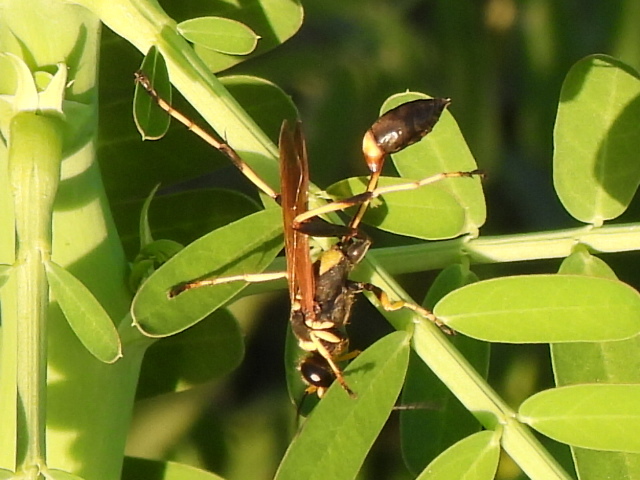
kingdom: Animalia
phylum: Arthropoda
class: Insecta
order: Hymenoptera
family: Sphecidae
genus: Sceliphron
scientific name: Sceliphron caementarium
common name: Mud dauber
